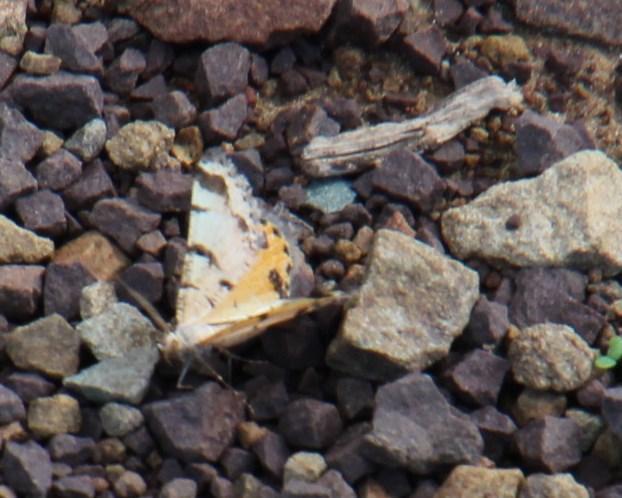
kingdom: Animalia
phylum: Arthropoda
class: Insecta
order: Lepidoptera
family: Geometridae
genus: Isturgia
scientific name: Isturgia focularia
